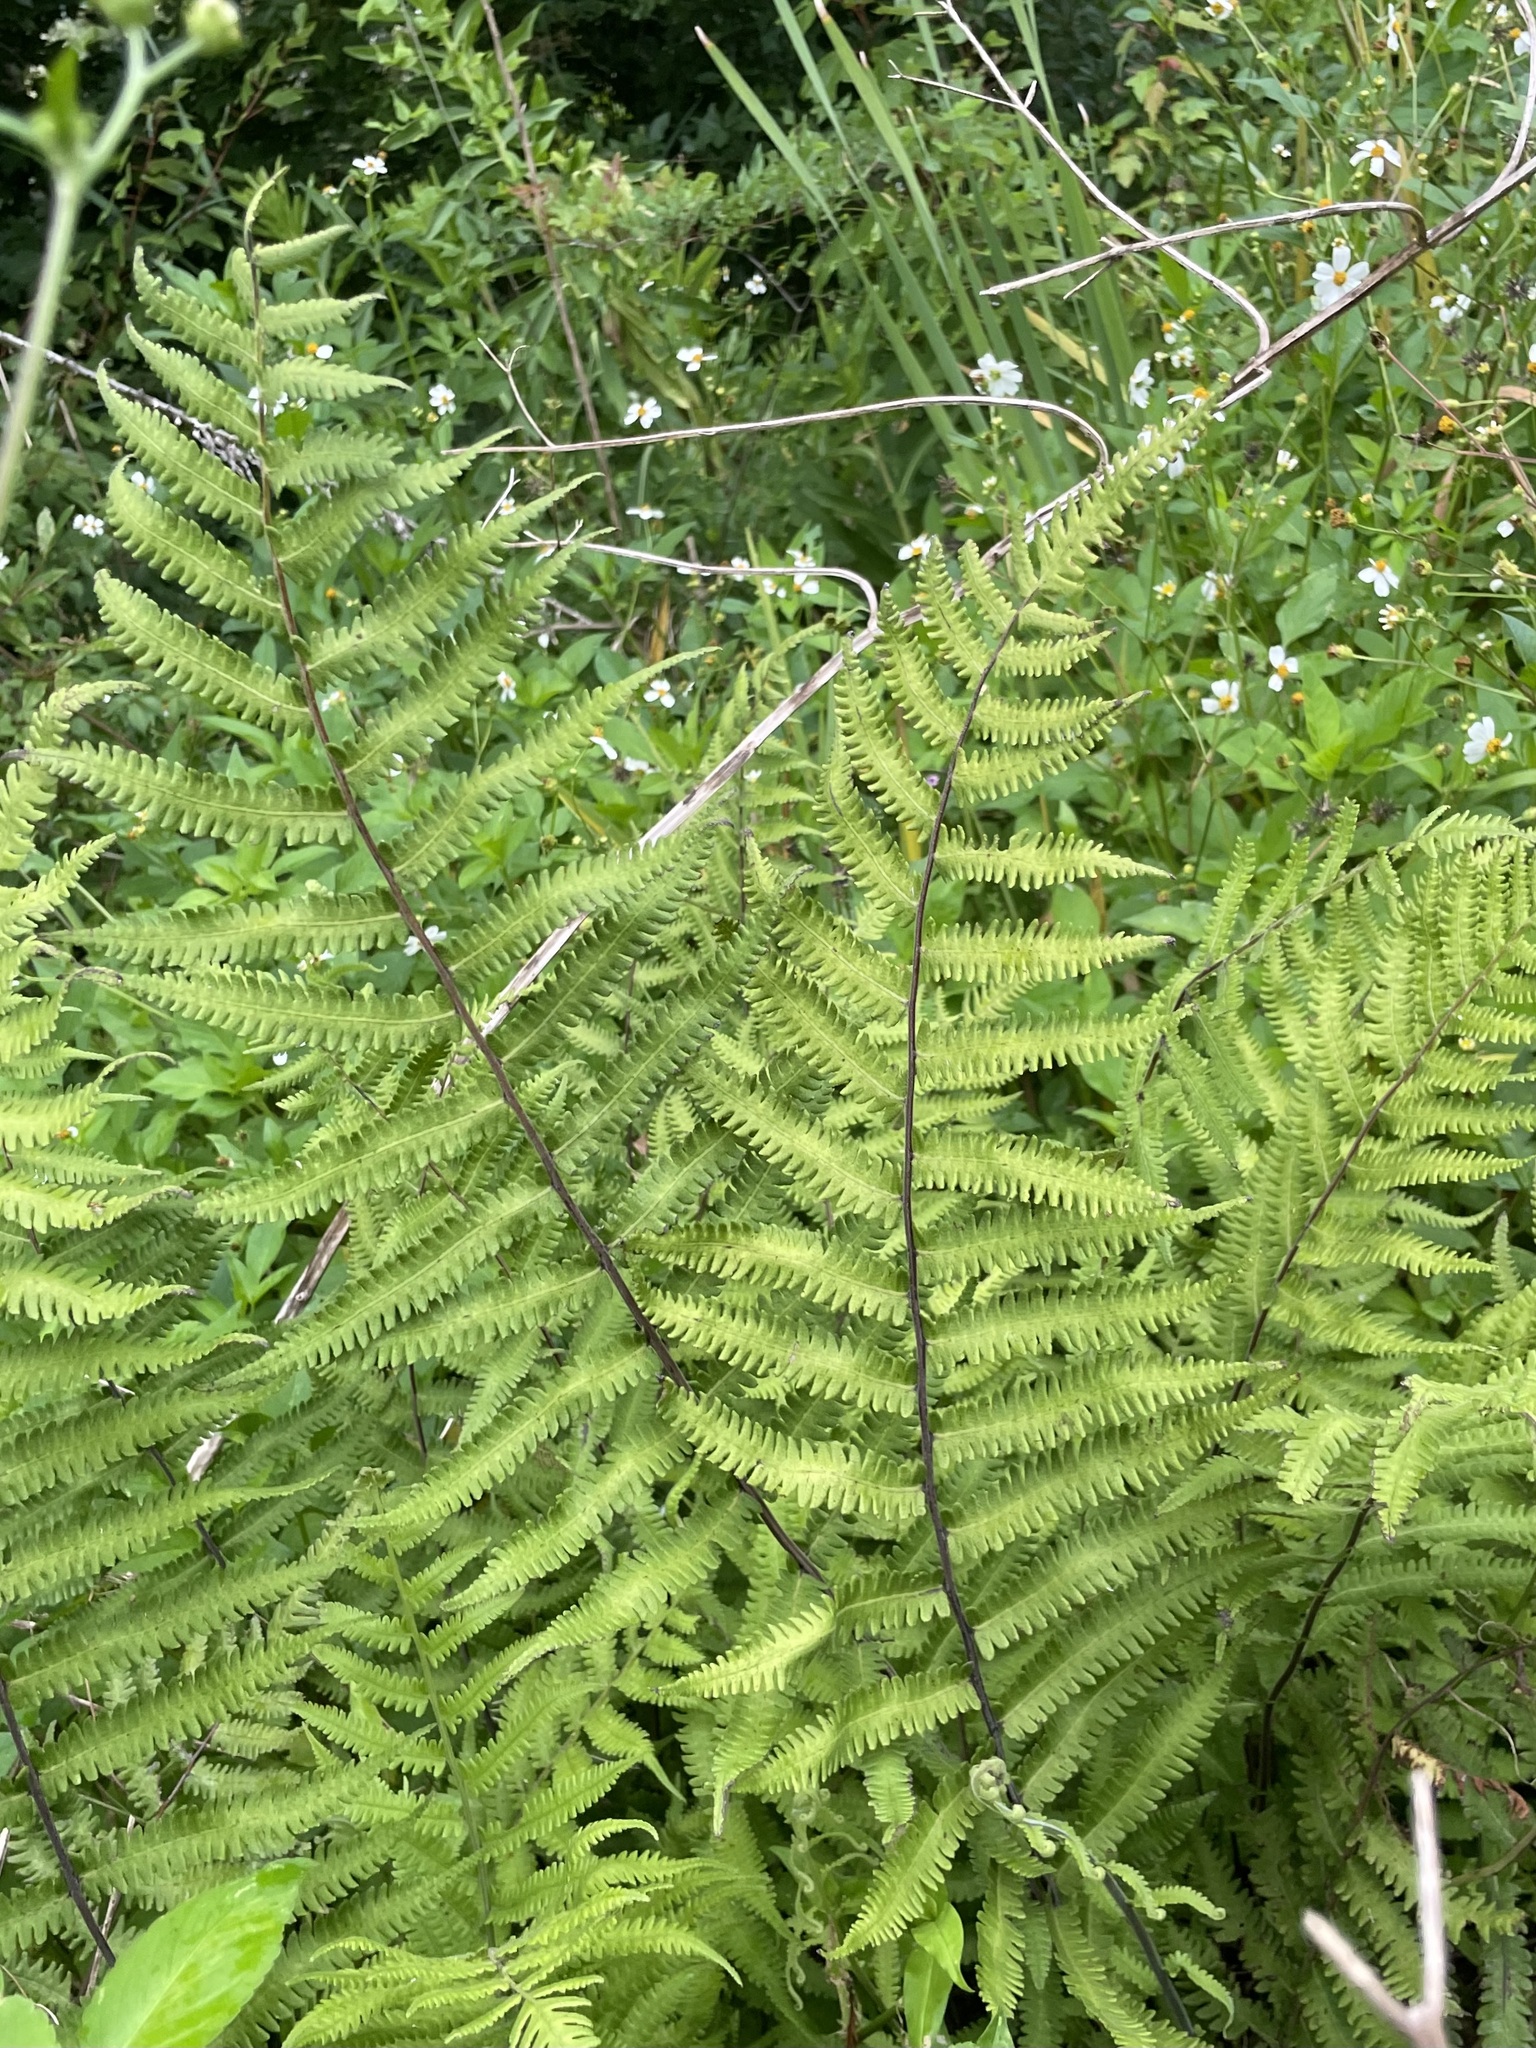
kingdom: Plantae
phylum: Tracheophyta
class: Polypodiopsida
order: Polypodiales
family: Thelypteridaceae
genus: Christella
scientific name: Christella dentata
